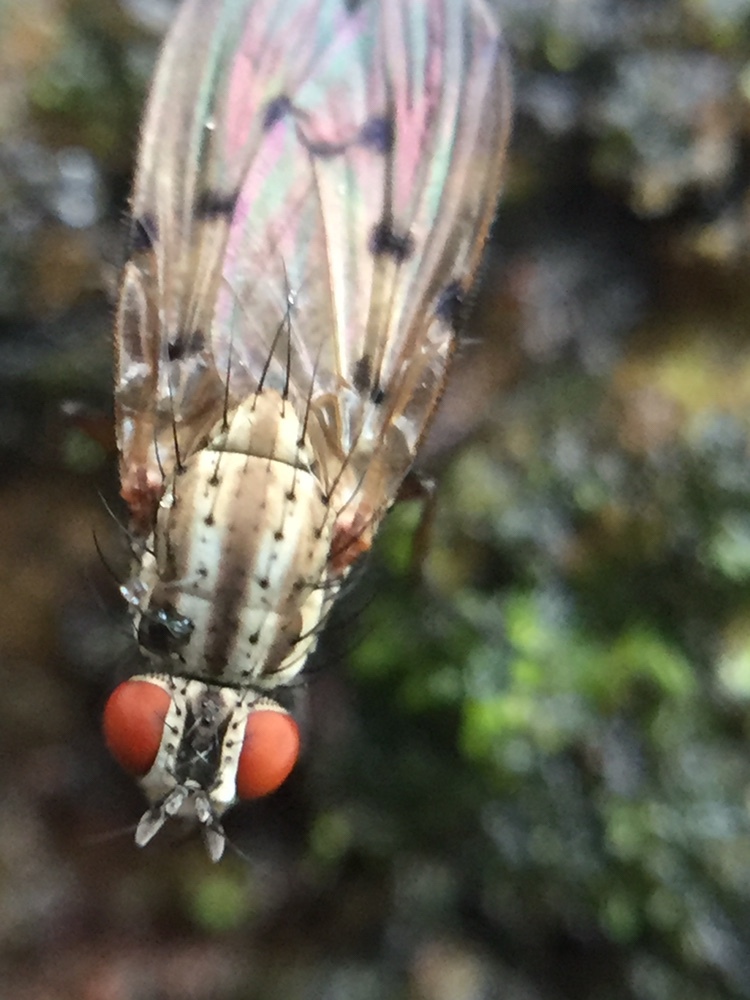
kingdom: Animalia
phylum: Arthropoda
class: Insecta
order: Diptera
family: Anthomyiidae
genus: Anthomyia
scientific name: Anthomyia punctipennis
